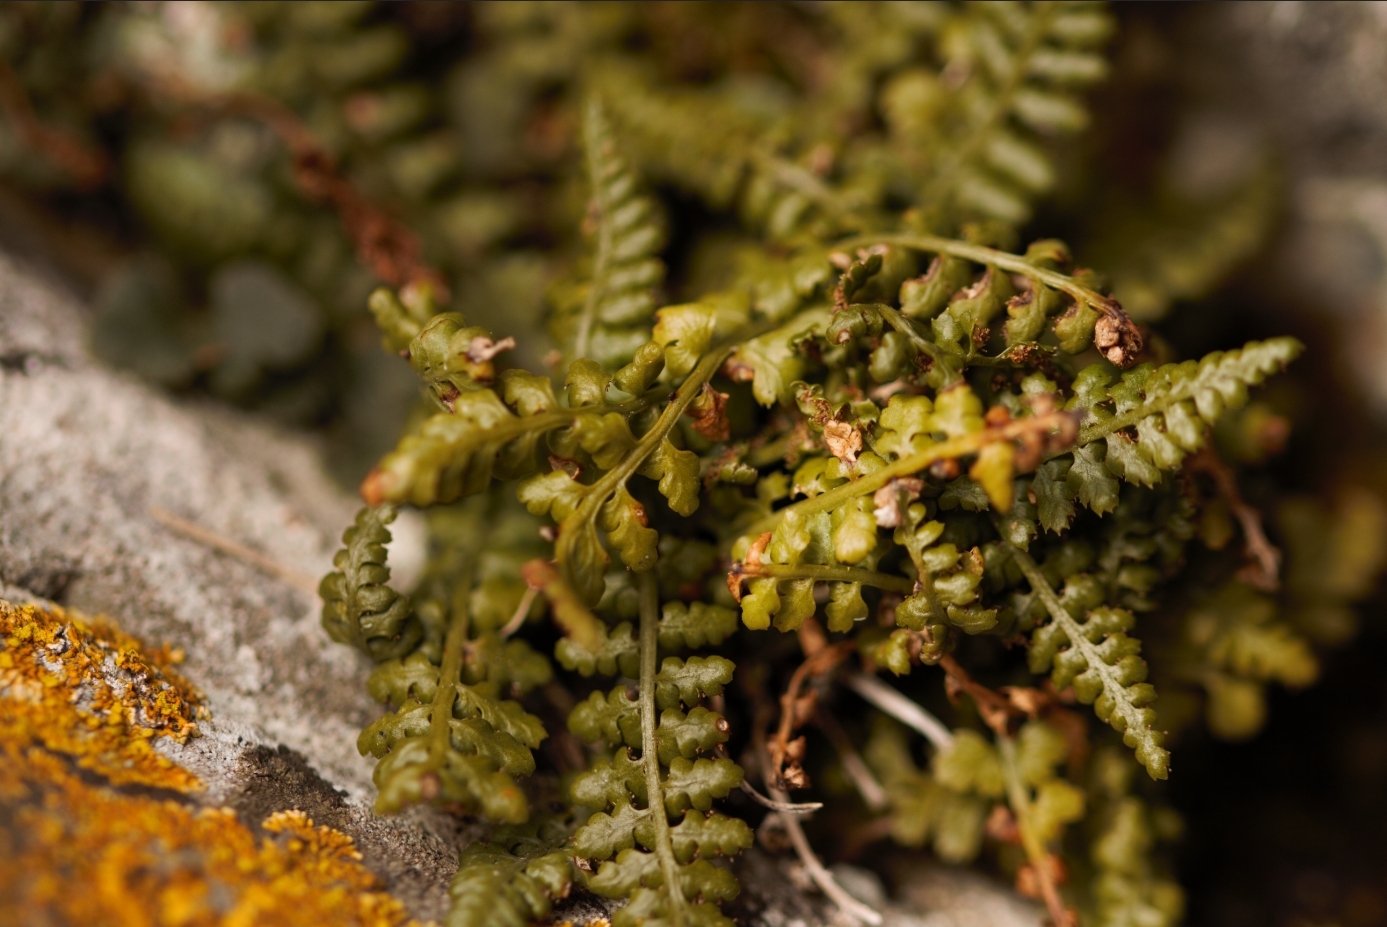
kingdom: Plantae
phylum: Tracheophyta
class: Polypodiopsida
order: Polypodiales
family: Aspleniaceae
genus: Asplenium
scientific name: Asplenium fontanum
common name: Fountain spleenwort
